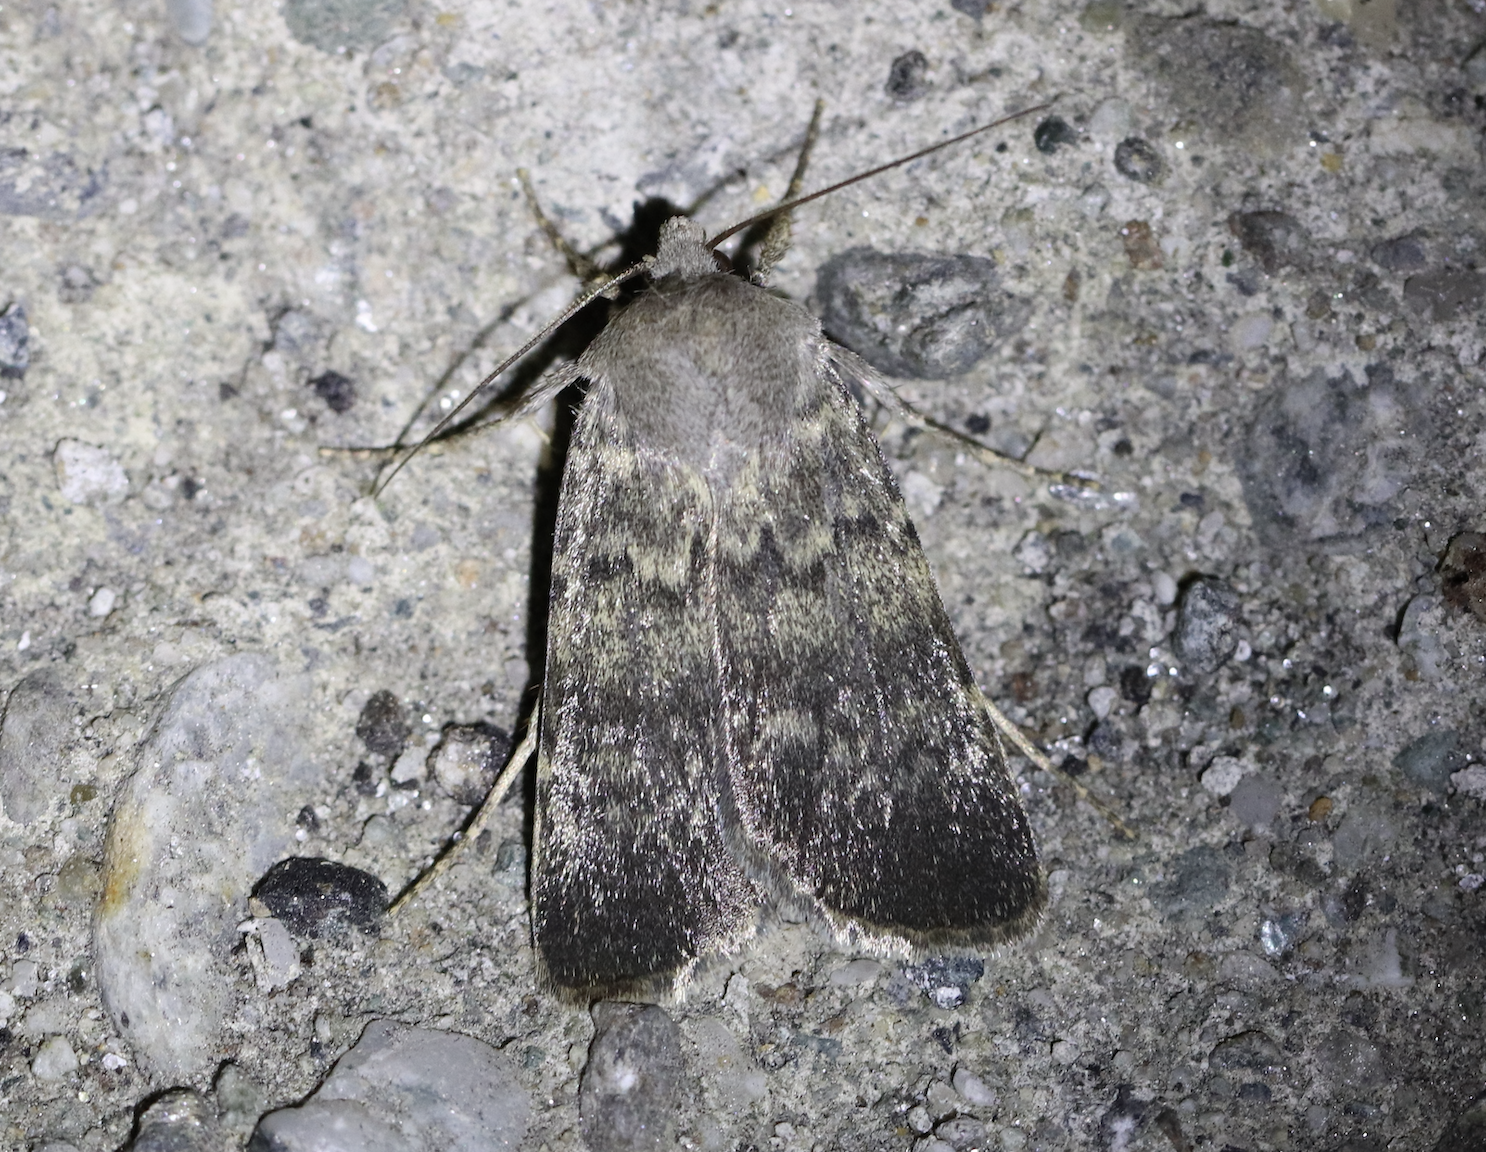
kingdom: Animalia
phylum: Arthropoda
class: Insecta
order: Lepidoptera
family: Noctuidae
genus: Standfussiana
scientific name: Standfussiana lucernea
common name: Northern rustic
